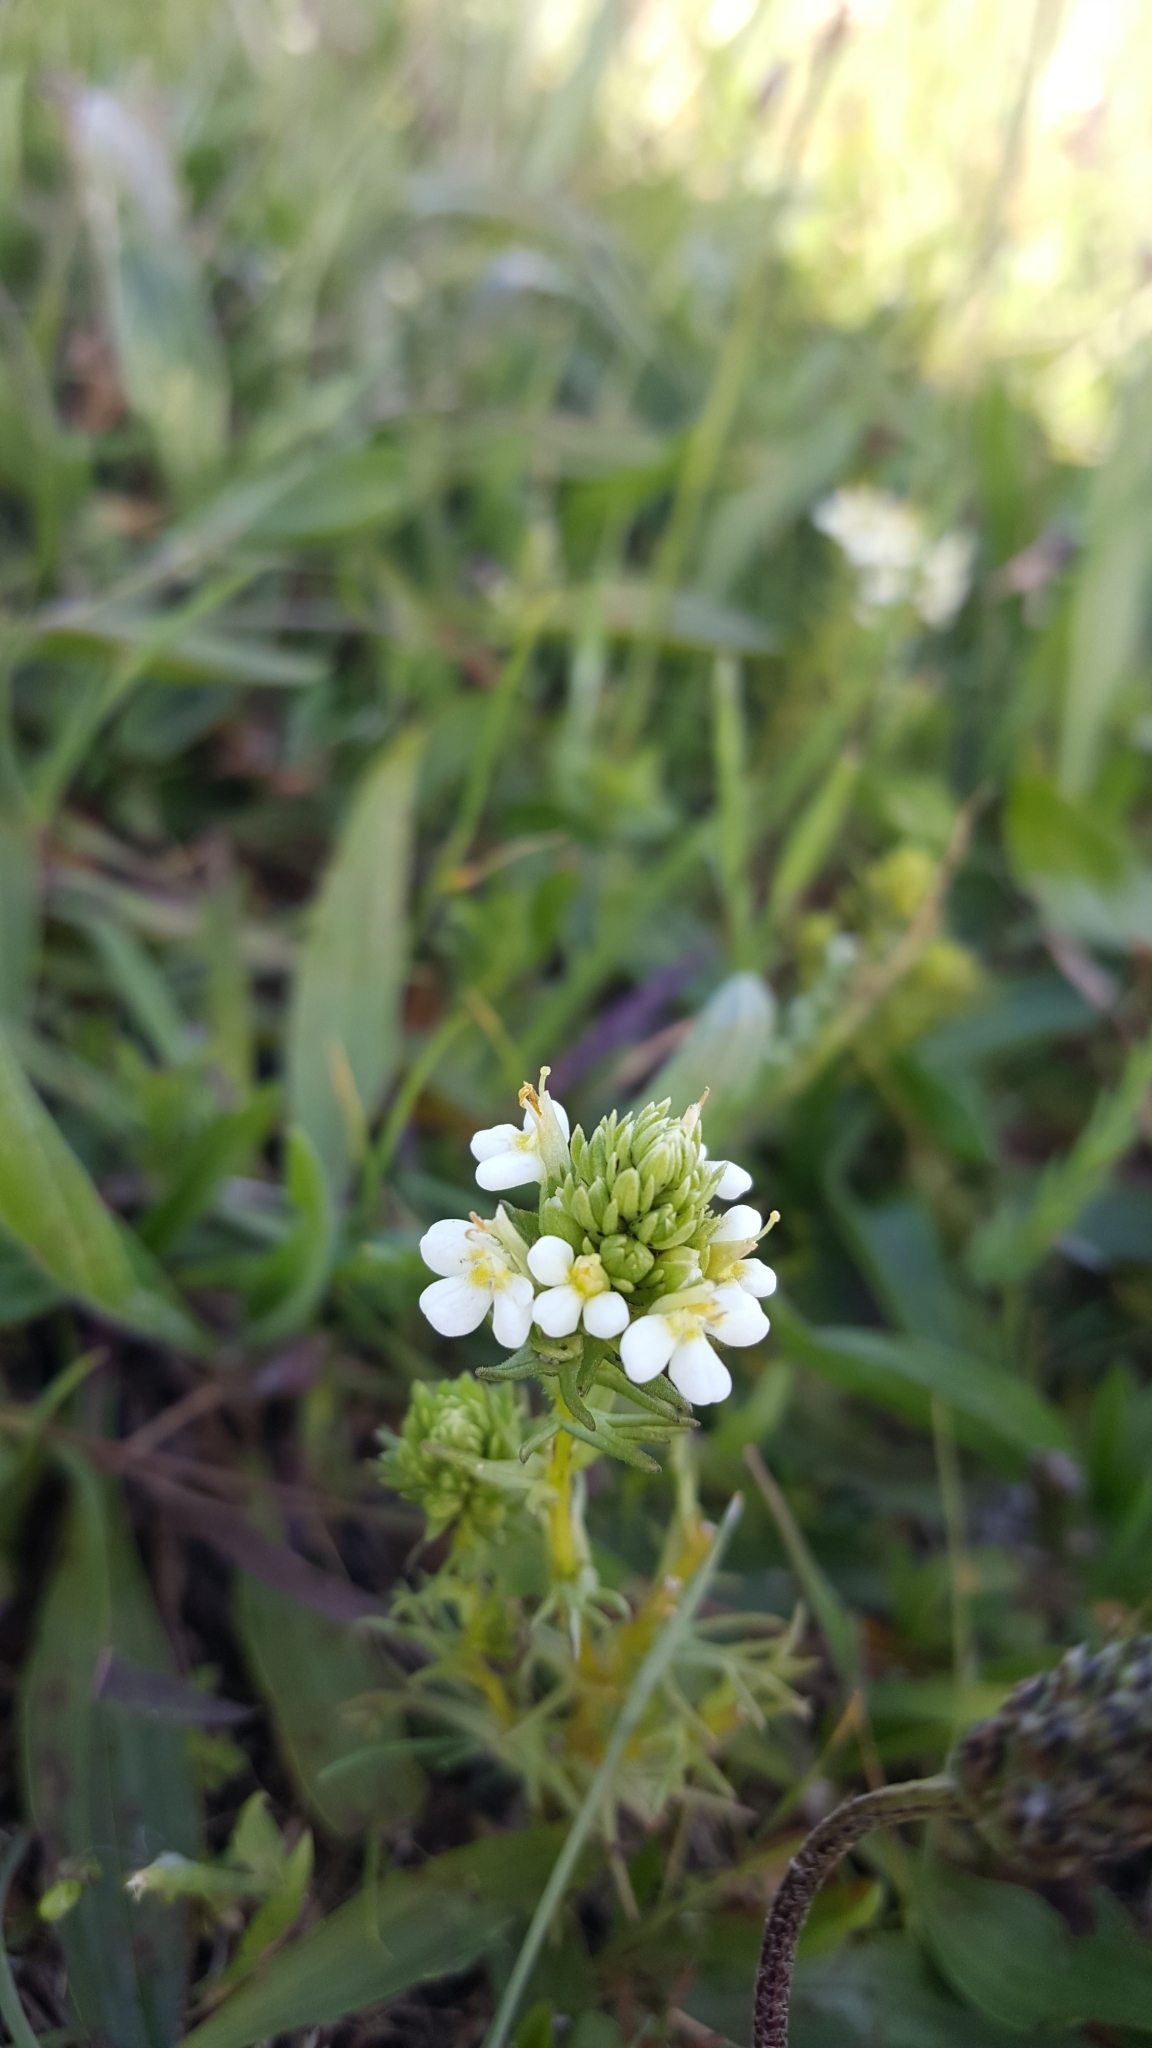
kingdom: Plantae
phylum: Tracheophyta
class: Magnoliopsida
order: Lamiales
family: Orobanchaceae
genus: Triphysaria
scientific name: Triphysaria floribunda
